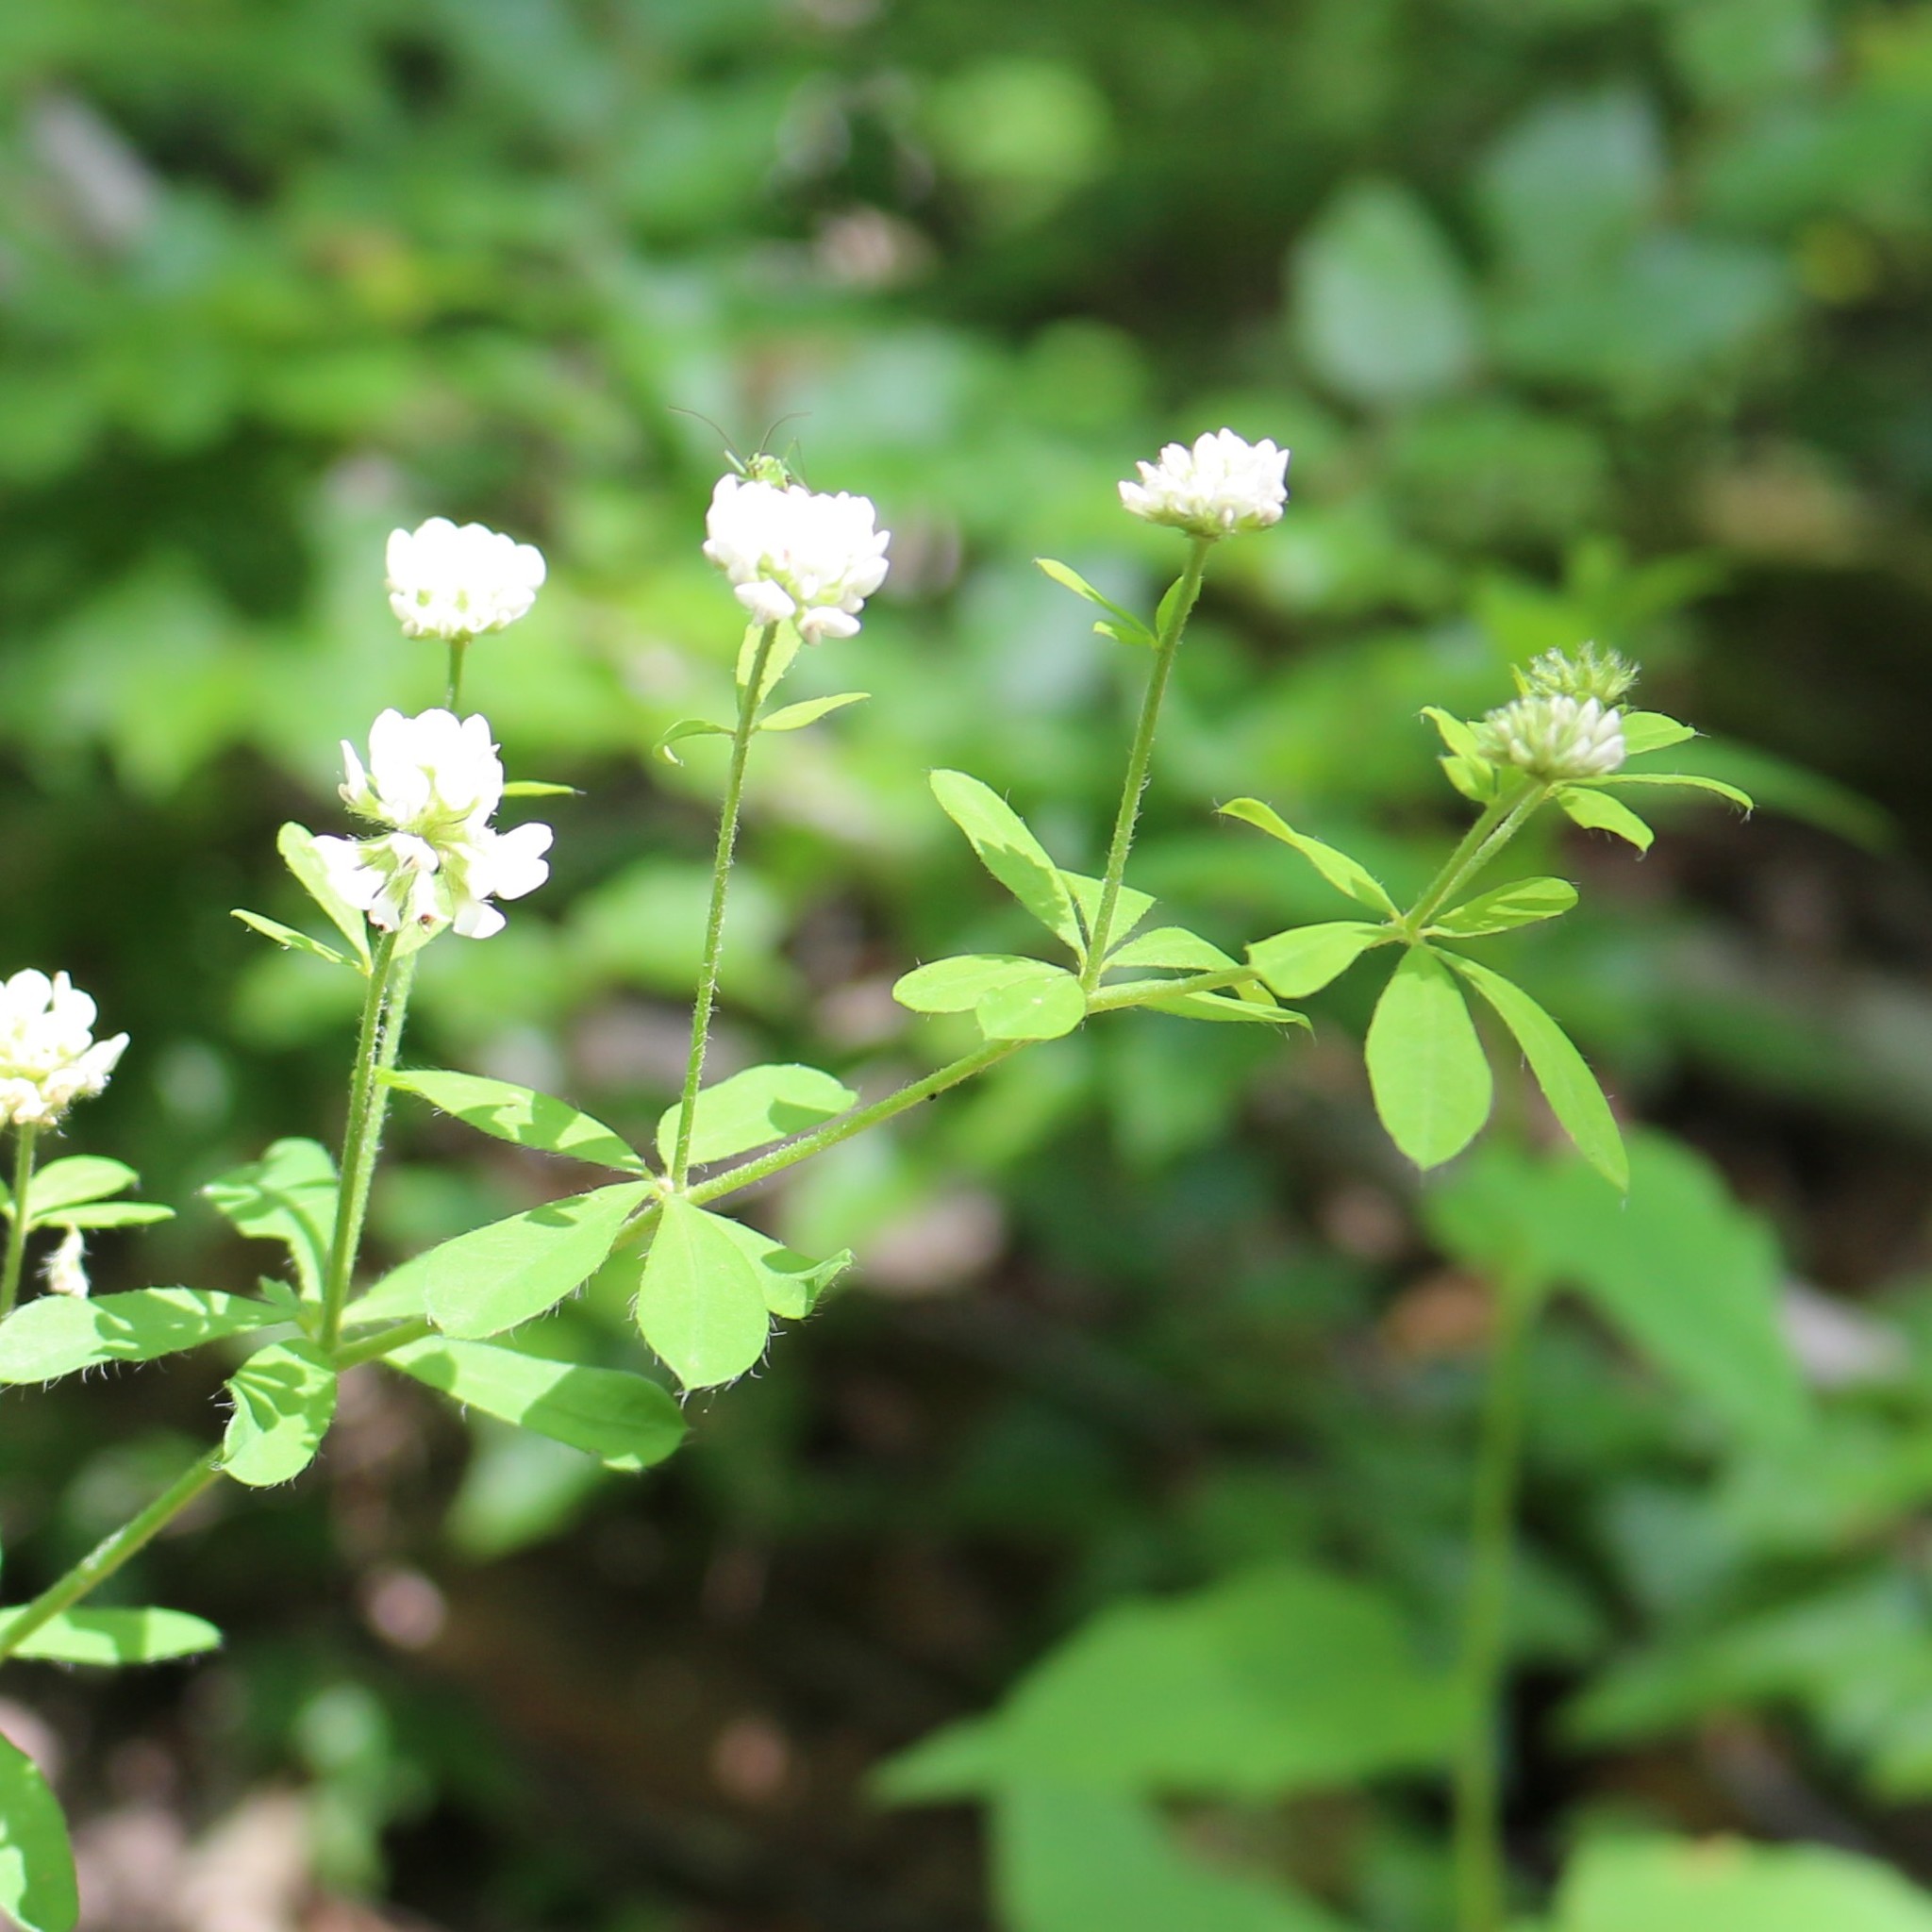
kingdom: Plantae
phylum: Tracheophyta
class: Magnoliopsida
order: Fabales
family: Fabaceae
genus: Lotus
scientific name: Lotus graecus
